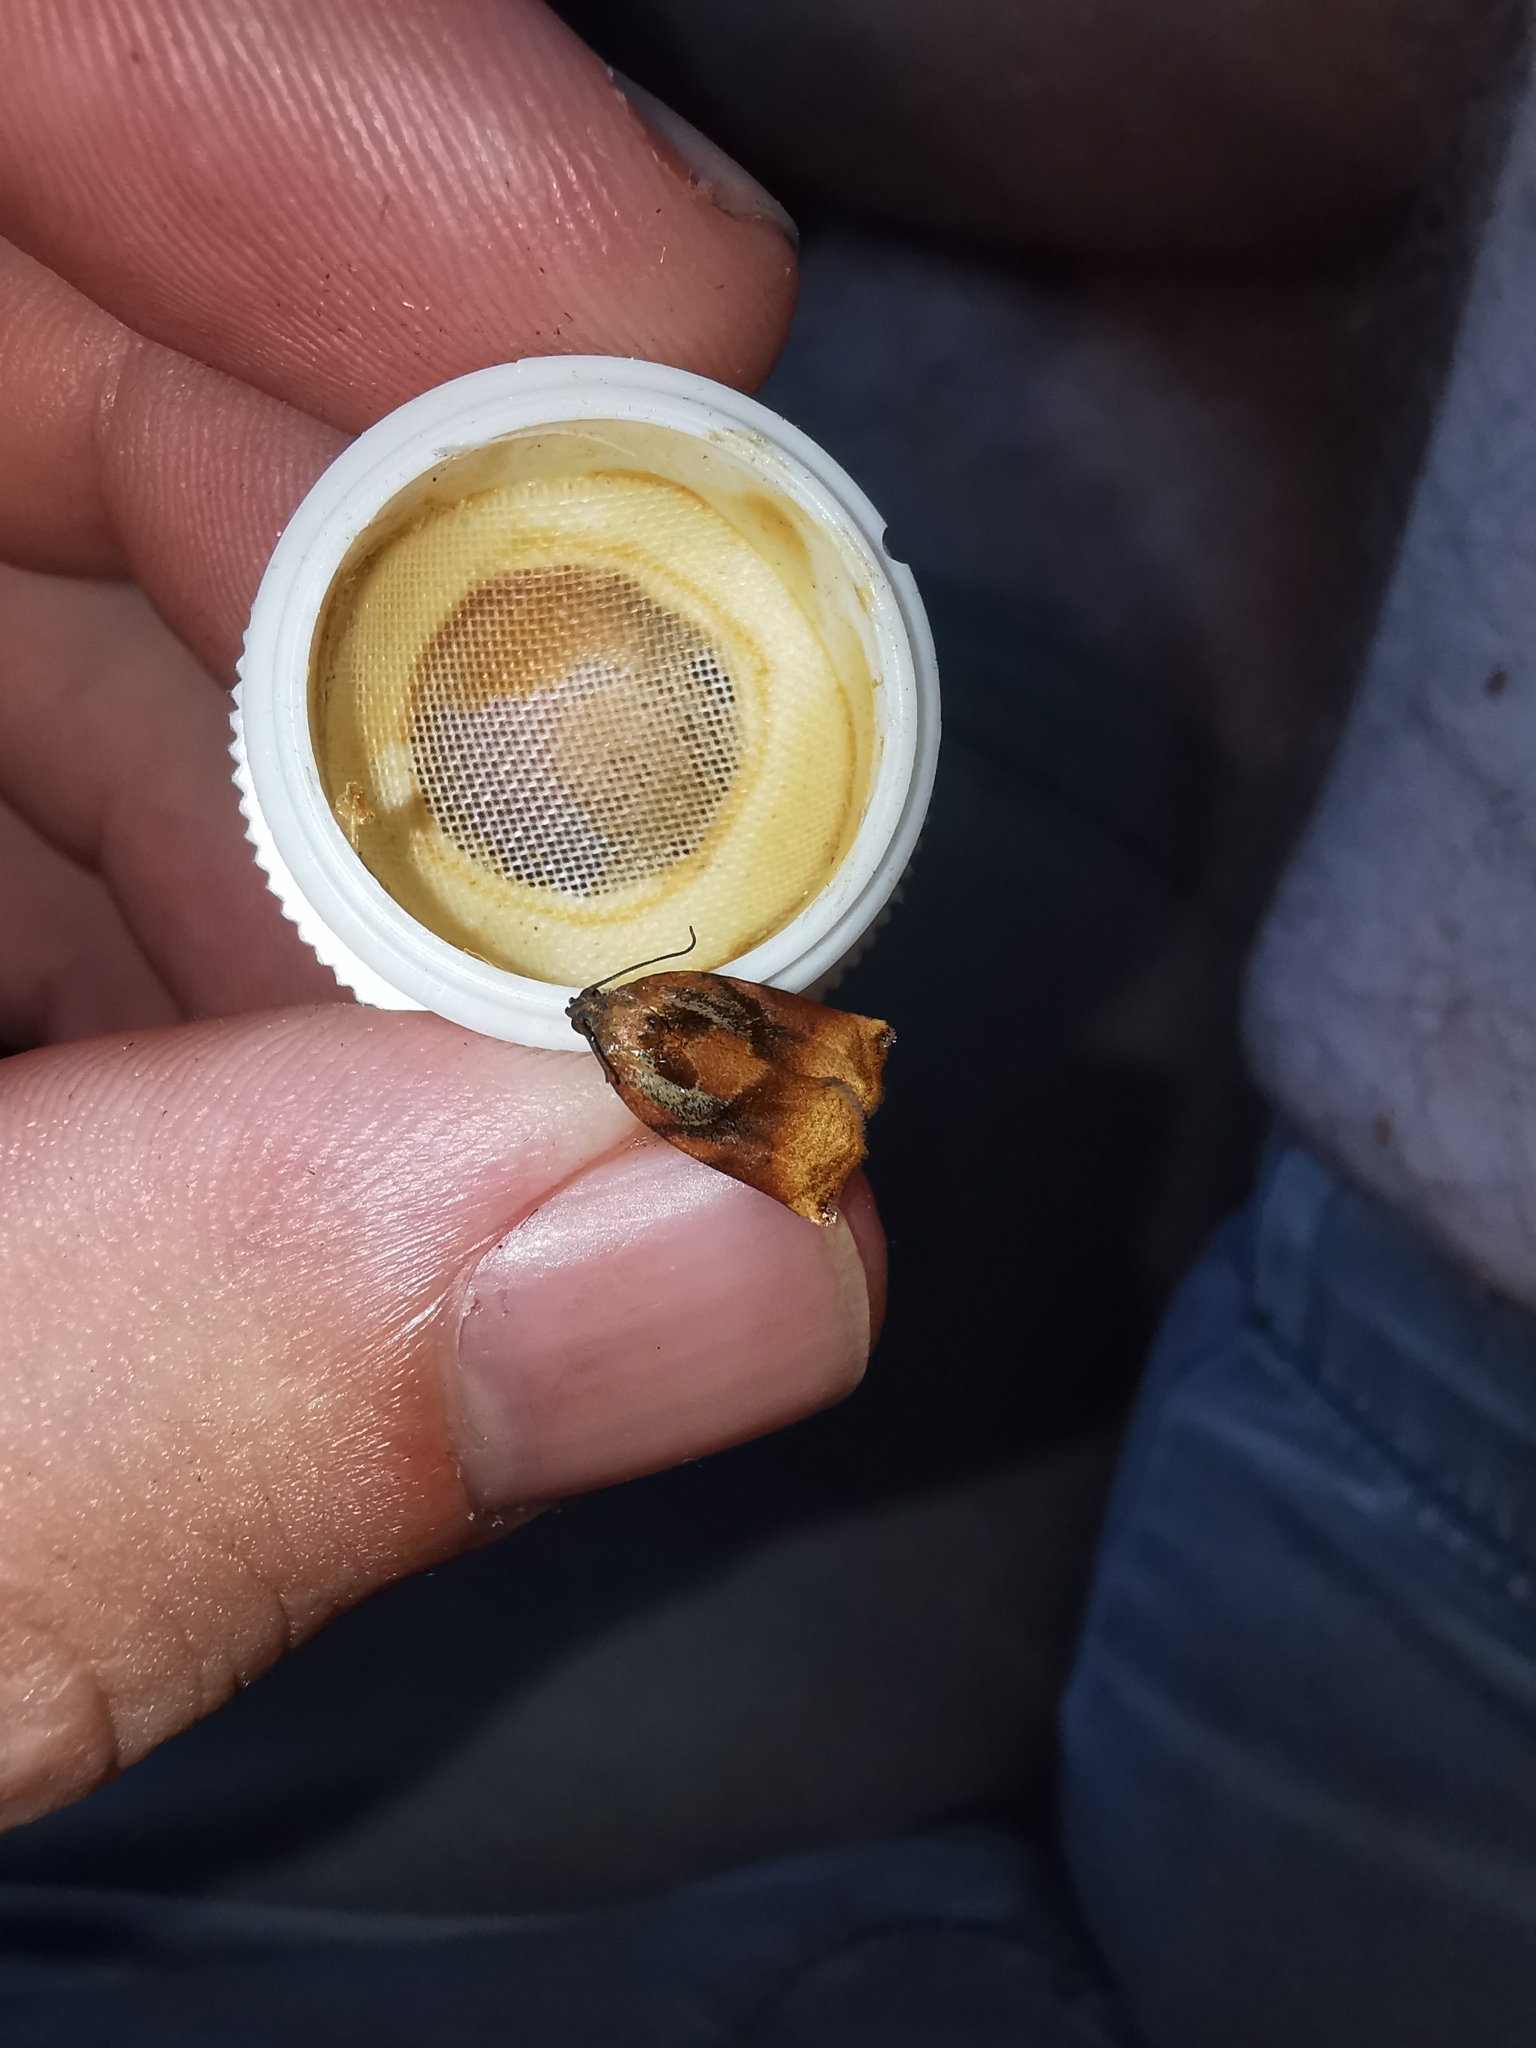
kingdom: Animalia
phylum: Arthropoda
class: Insecta
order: Lepidoptera
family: Tortricidae
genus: Archips
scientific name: Archips podana
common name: Large fruit-tree tortrix
